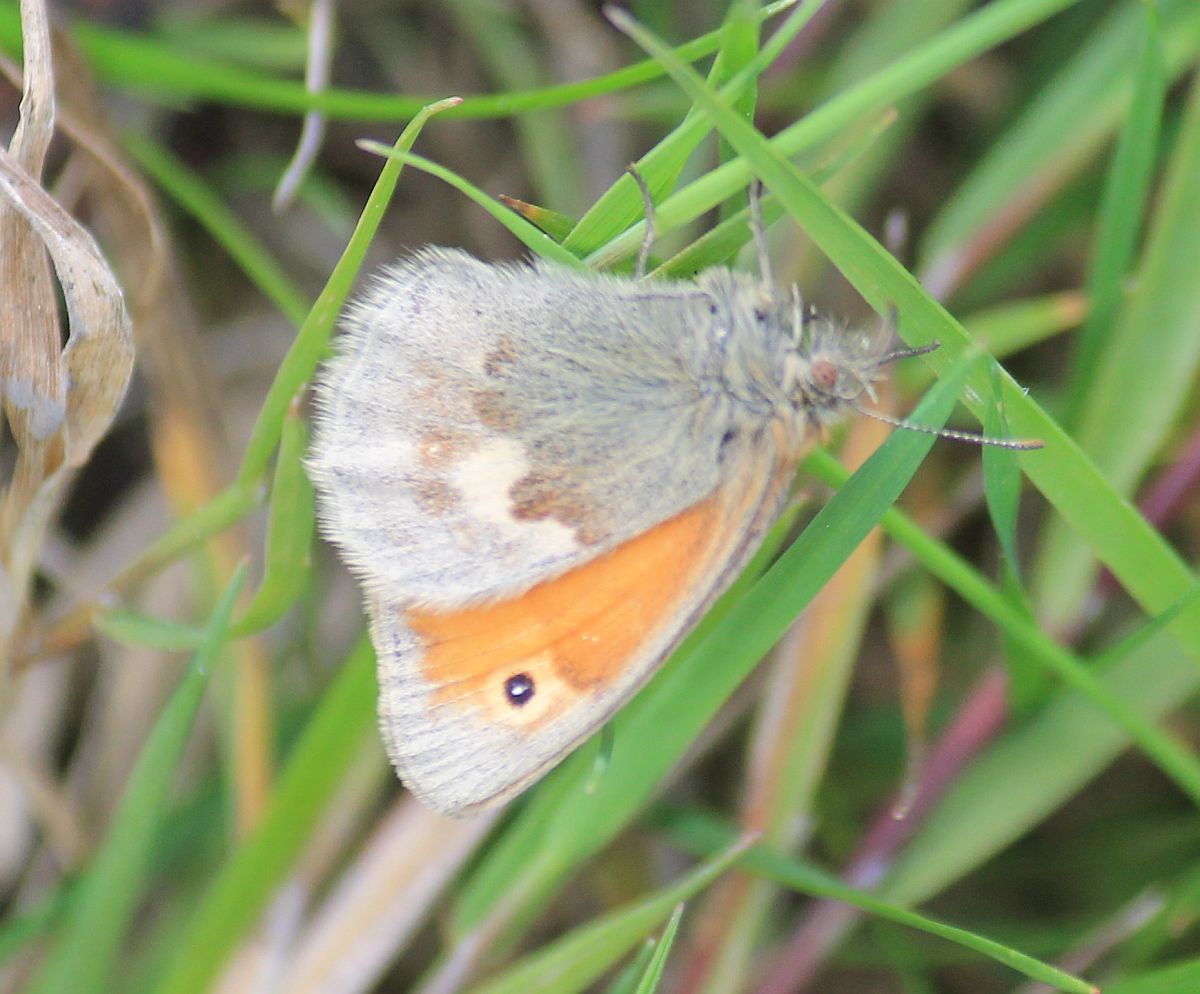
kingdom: Animalia
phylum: Arthropoda
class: Insecta
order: Lepidoptera
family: Nymphalidae
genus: Coenonympha
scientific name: Coenonympha pamphilus
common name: Small heath
